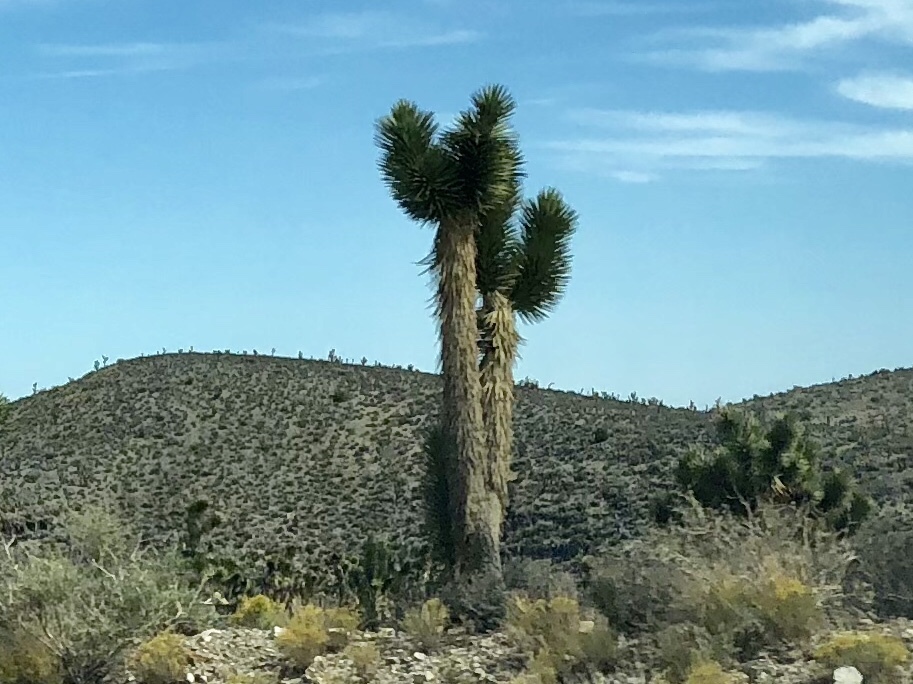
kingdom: Plantae
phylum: Tracheophyta
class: Liliopsida
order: Asparagales
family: Asparagaceae
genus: Yucca
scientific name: Yucca brevifolia
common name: Joshua tree
